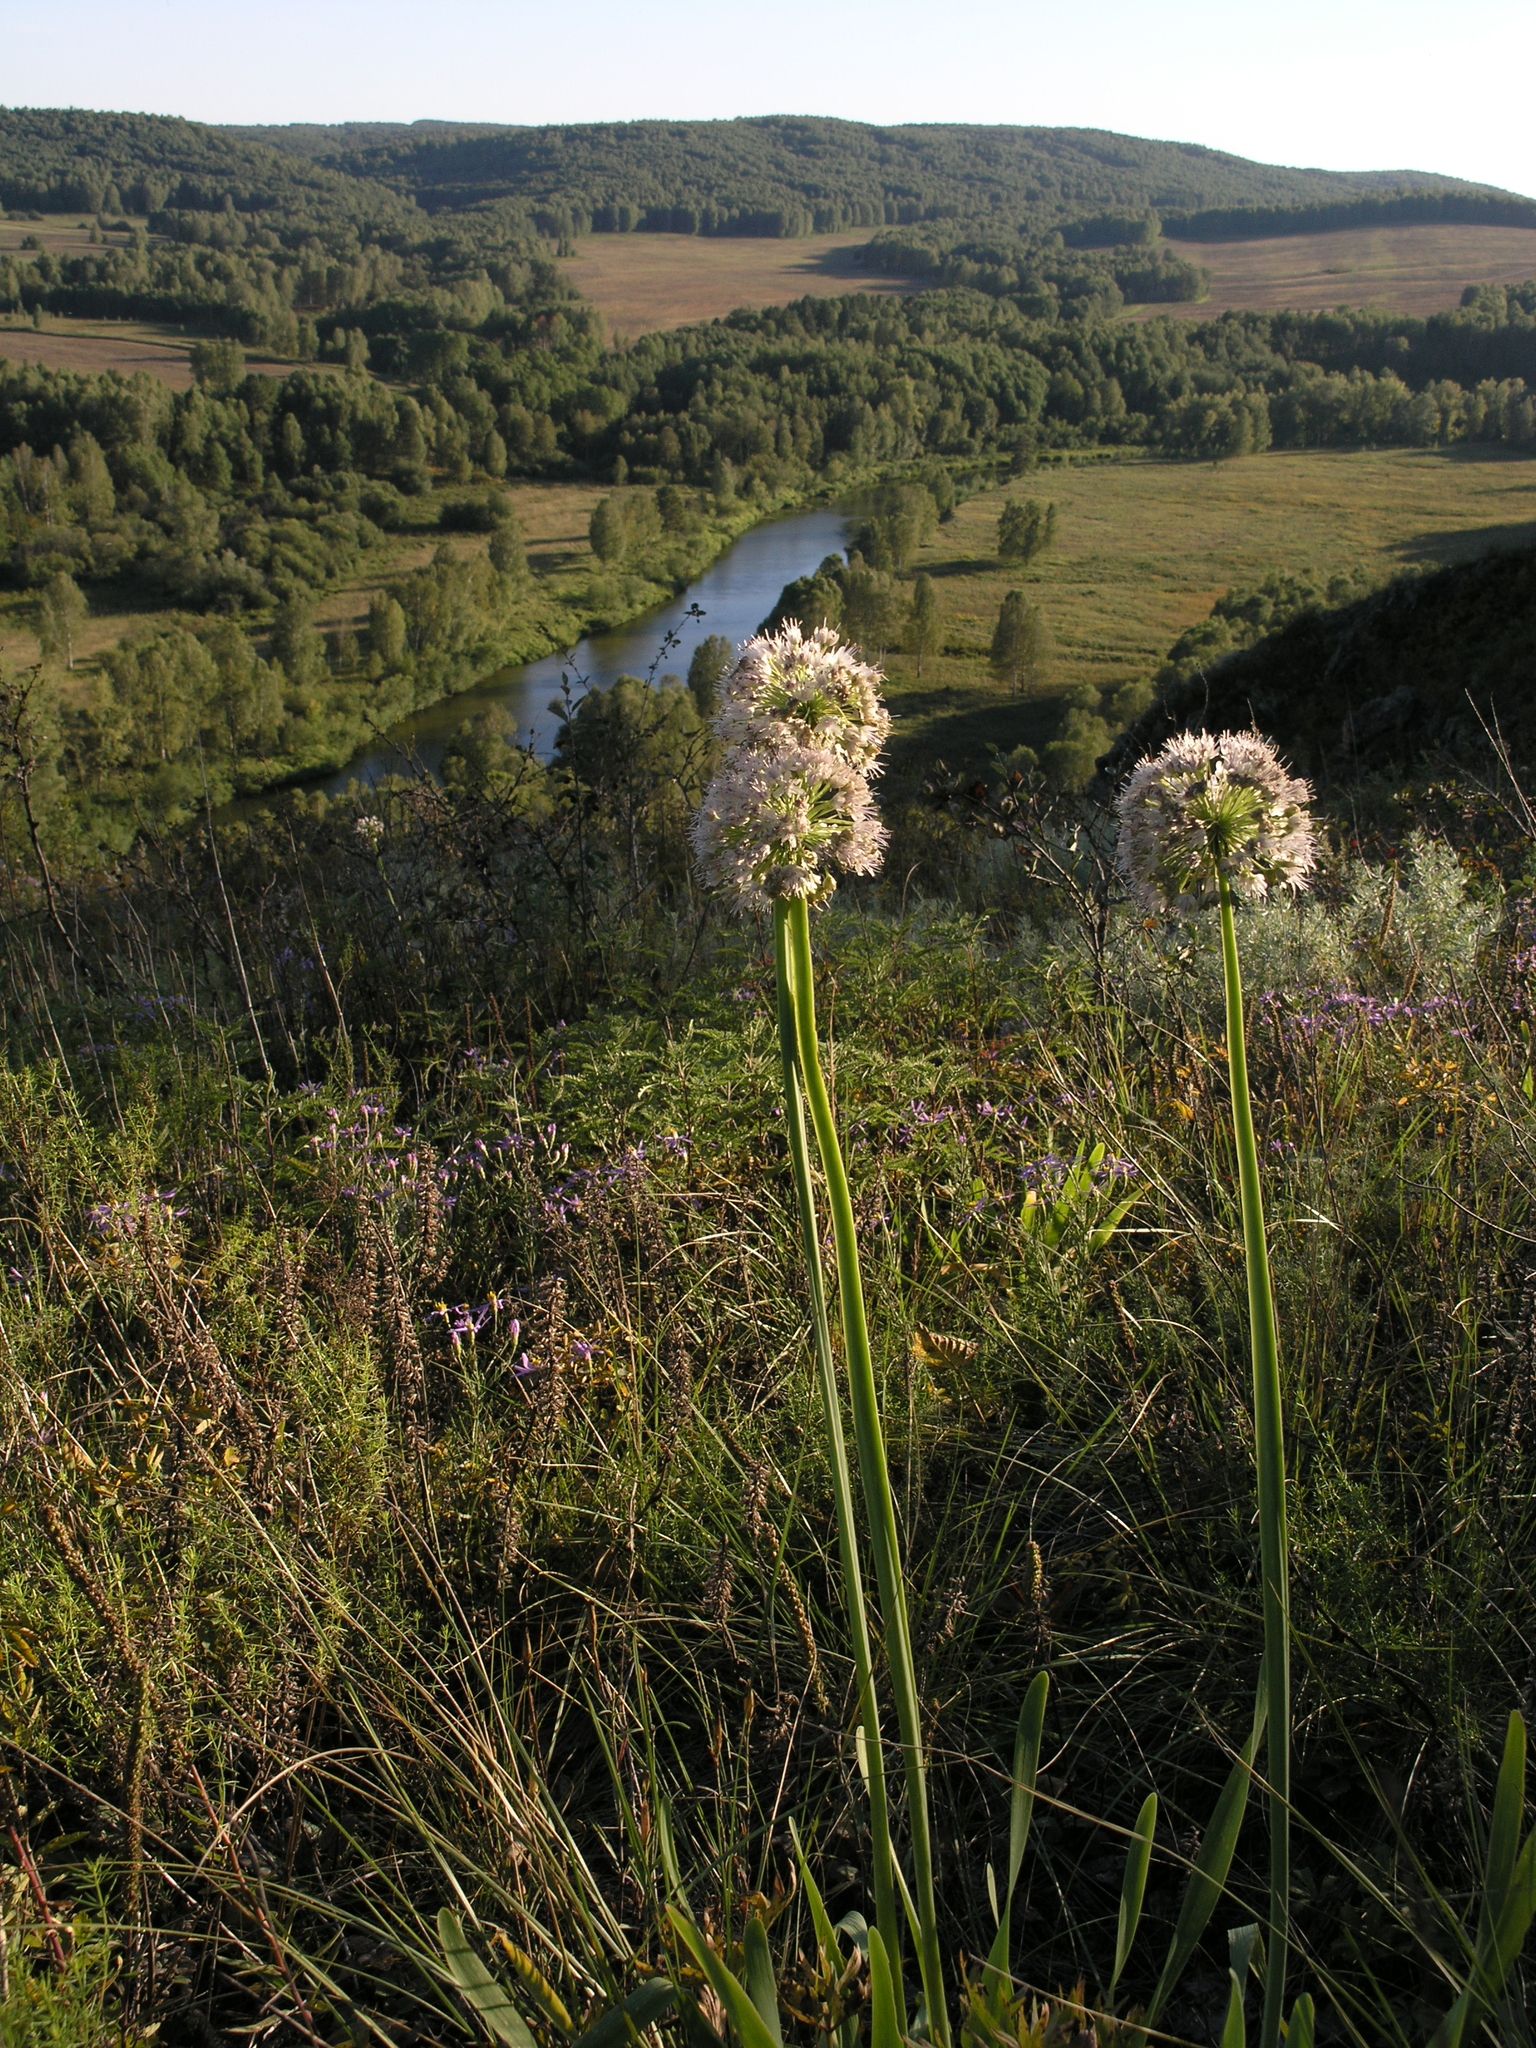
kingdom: Plantae
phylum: Tracheophyta
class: Liliopsida
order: Asparagales
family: Amaryllidaceae
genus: Allium
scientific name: Allium nutans
